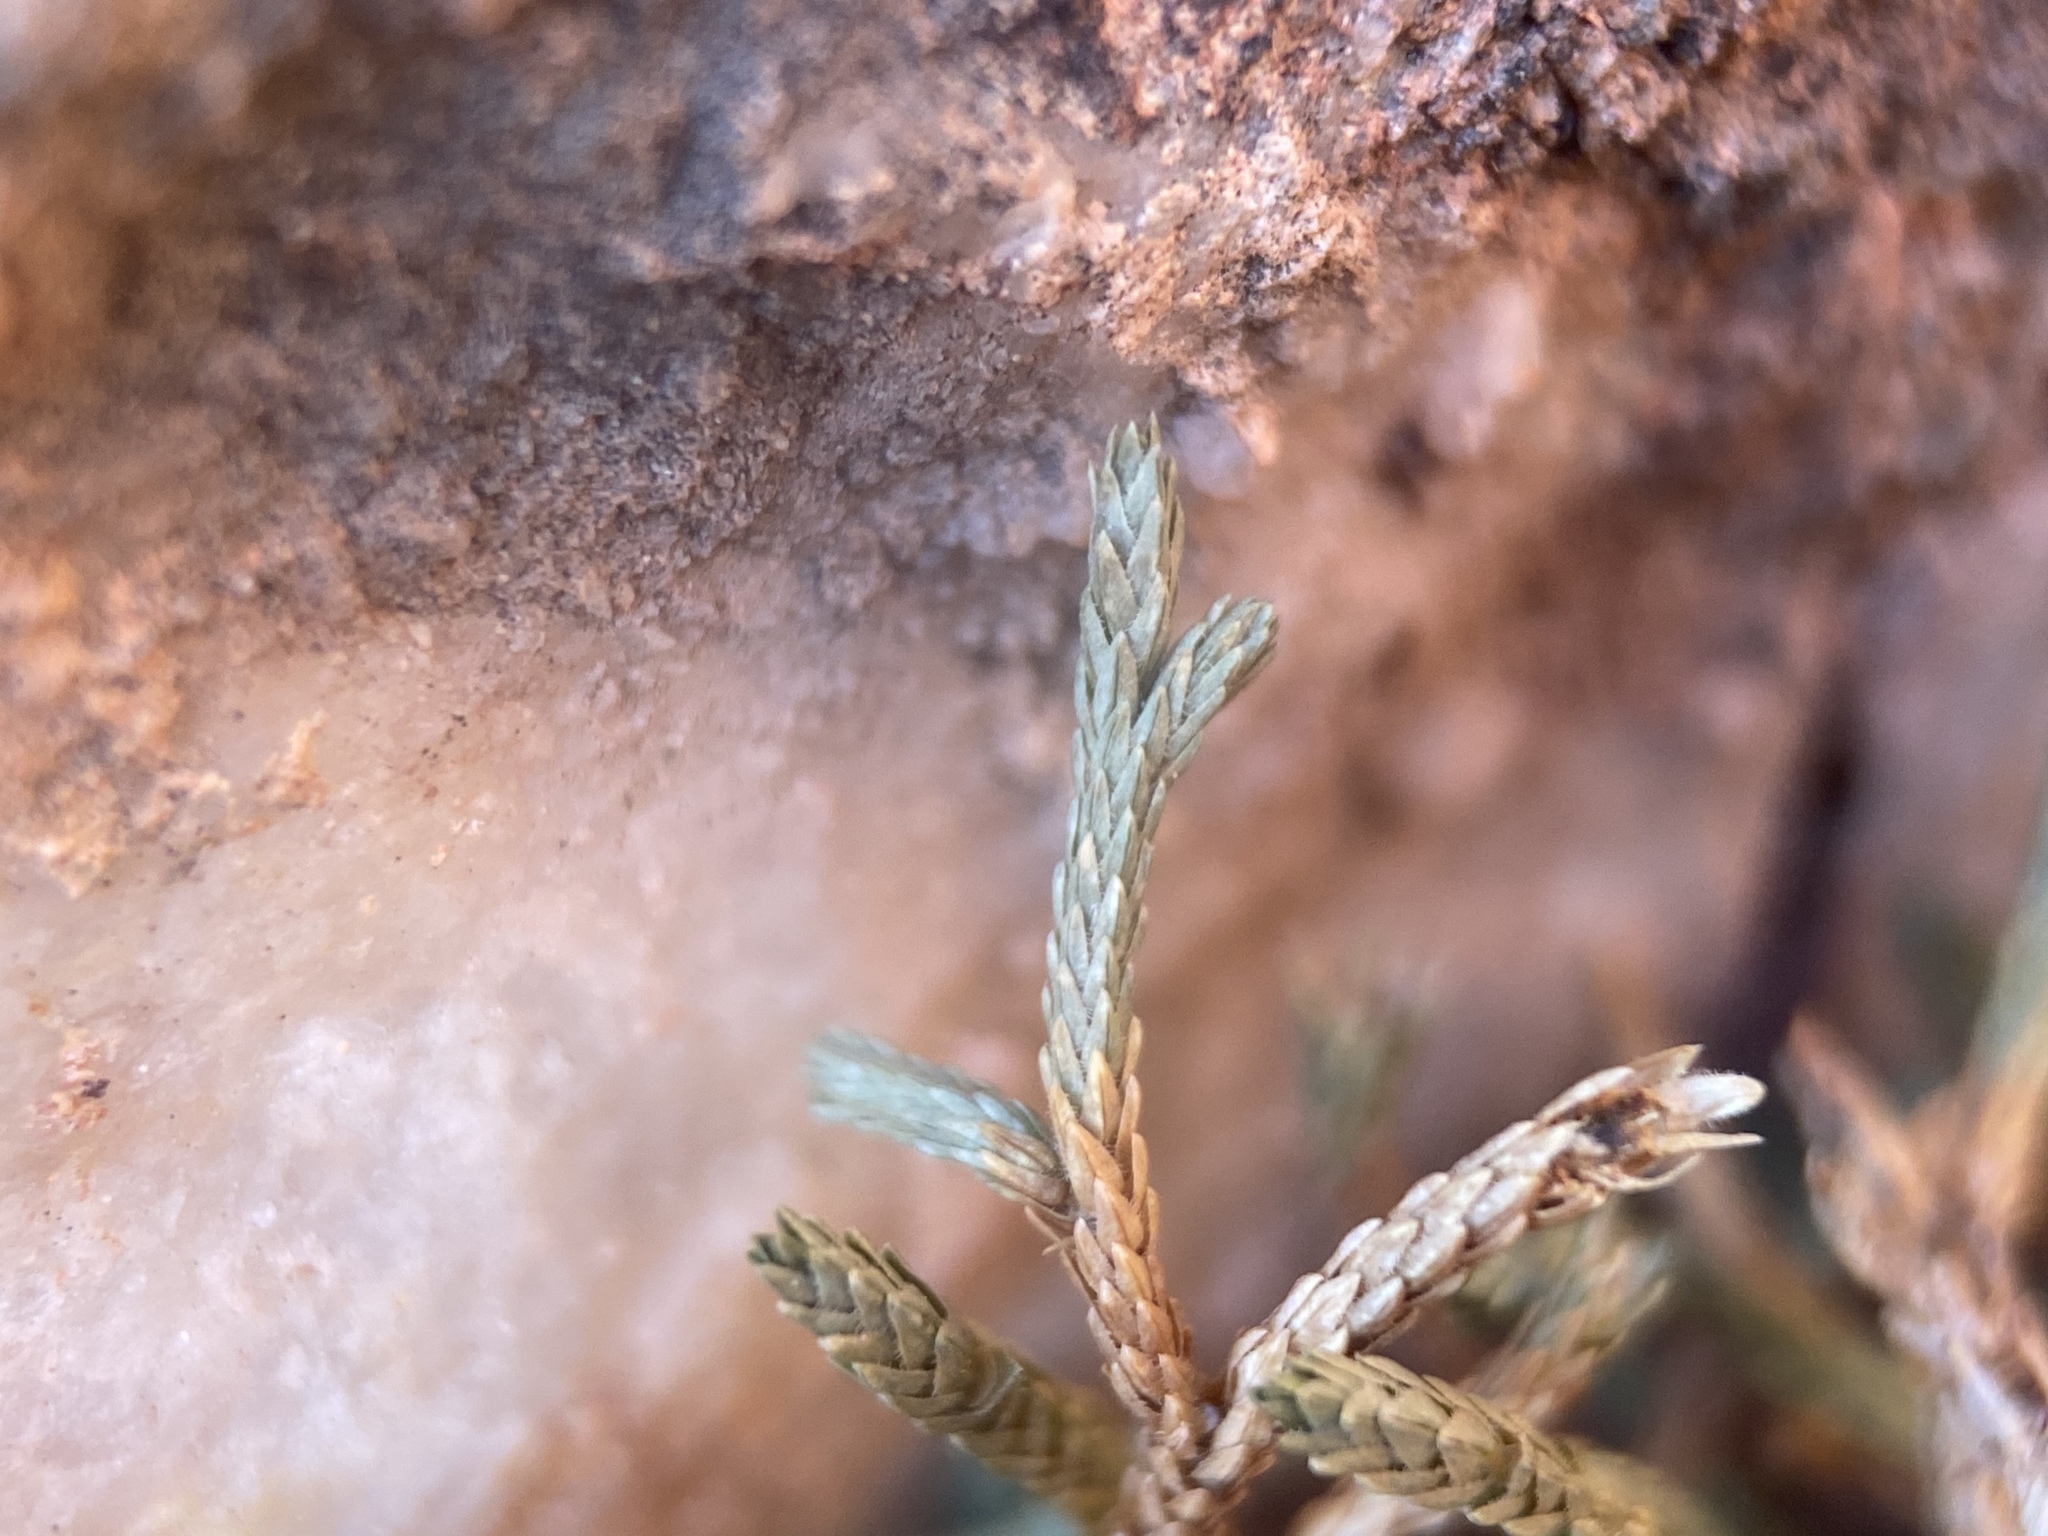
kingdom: Plantae
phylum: Tracheophyta
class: Lycopodiopsida
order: Selaginellales
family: Selaginellaceae
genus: Selaginella
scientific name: Selaginella mutica
